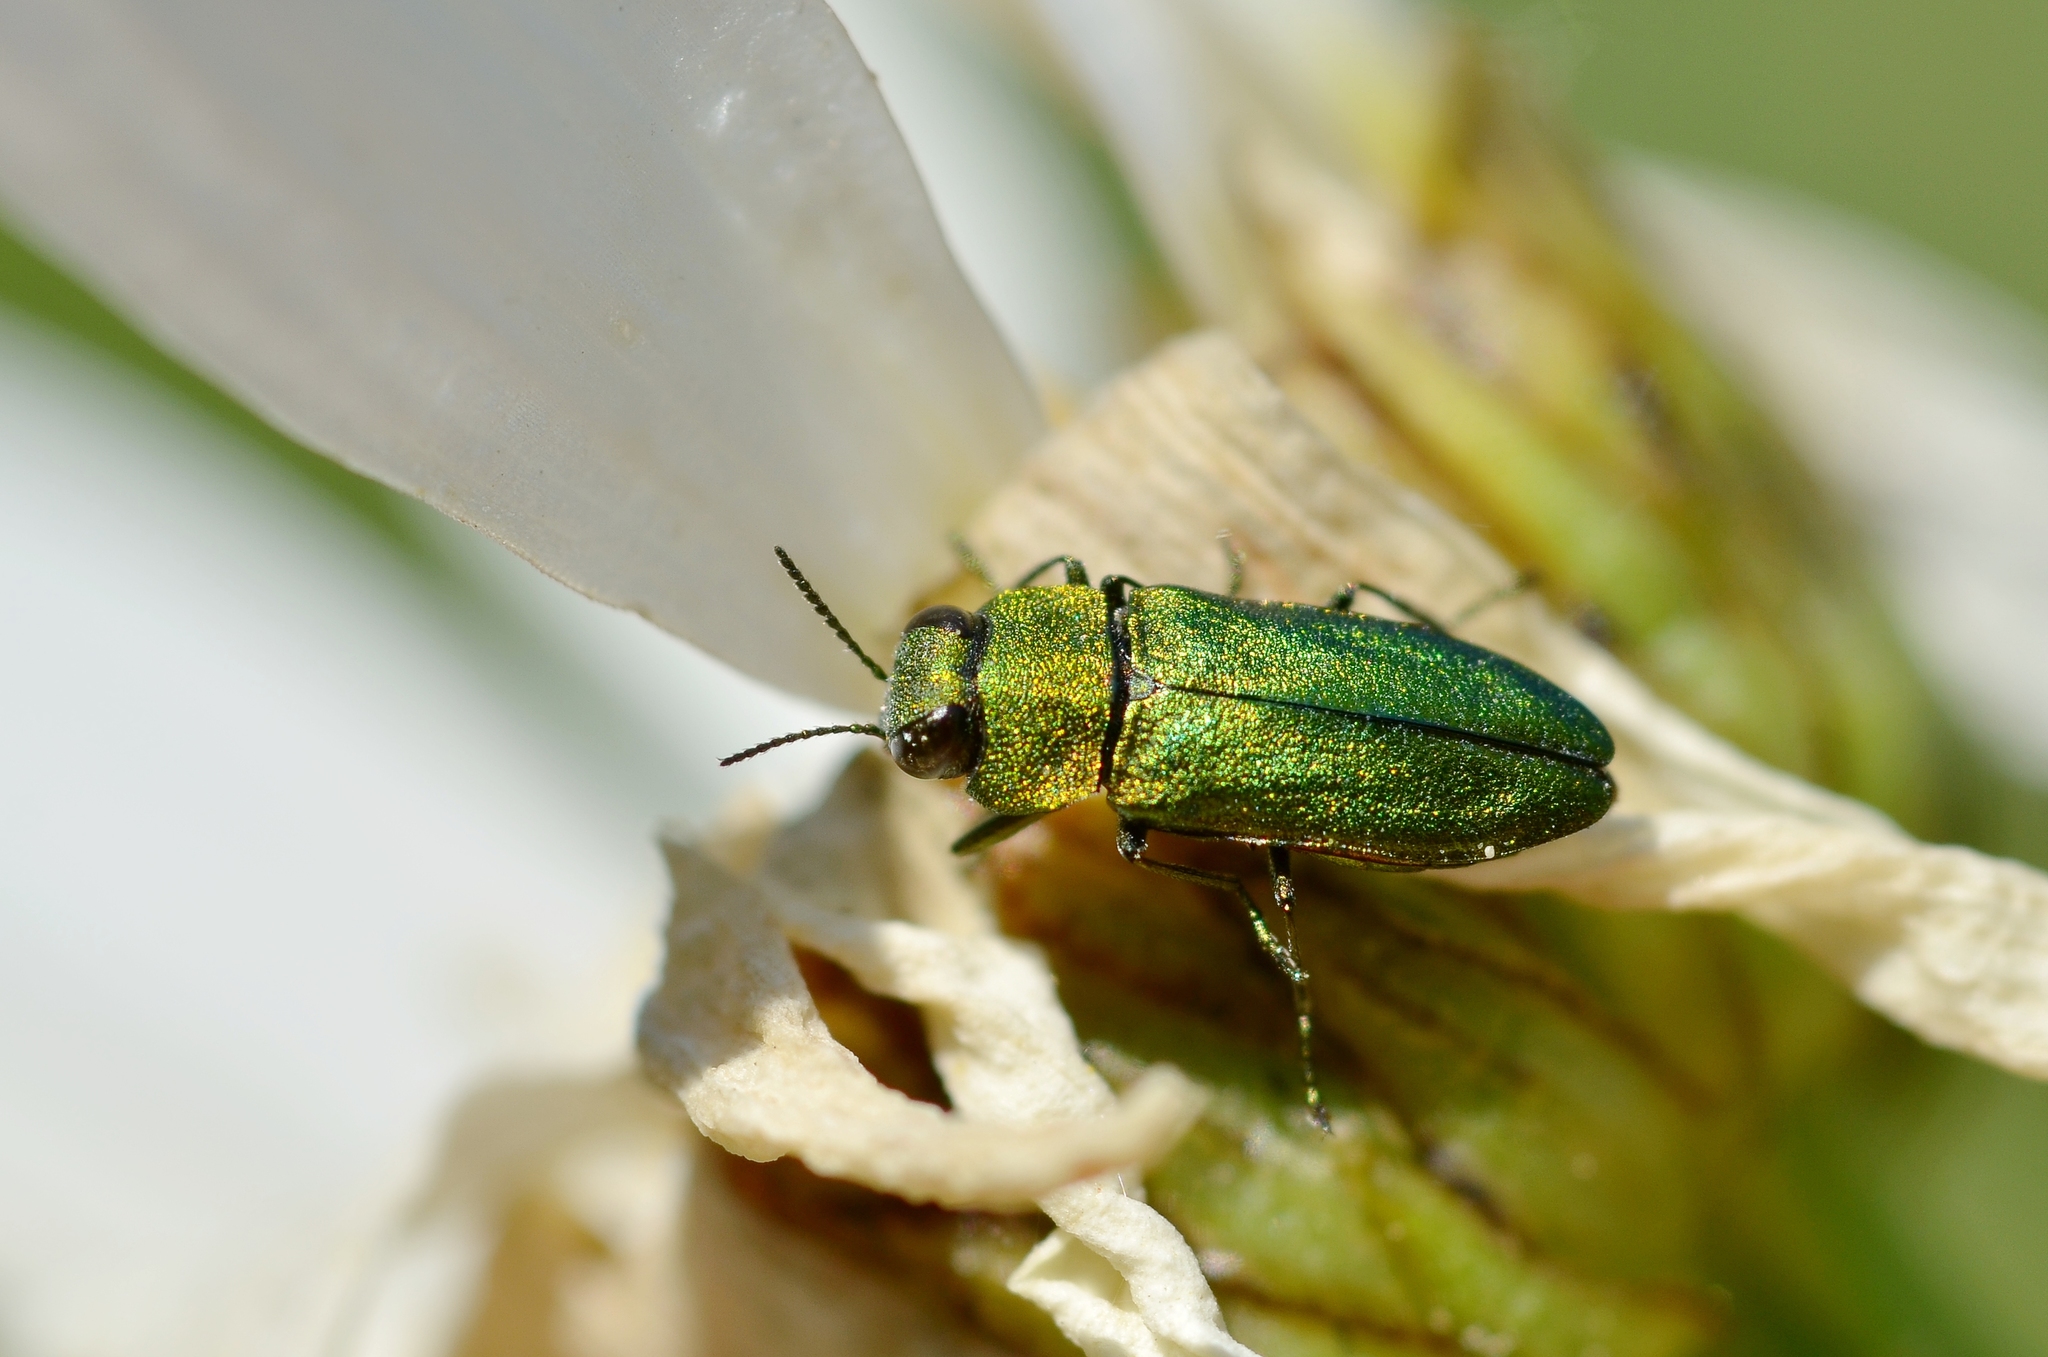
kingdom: Animalia
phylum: Arthropoda
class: Insecta
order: Coleoptera
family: Buprestidae
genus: Anthaxia
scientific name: Anthaxia nitidula
